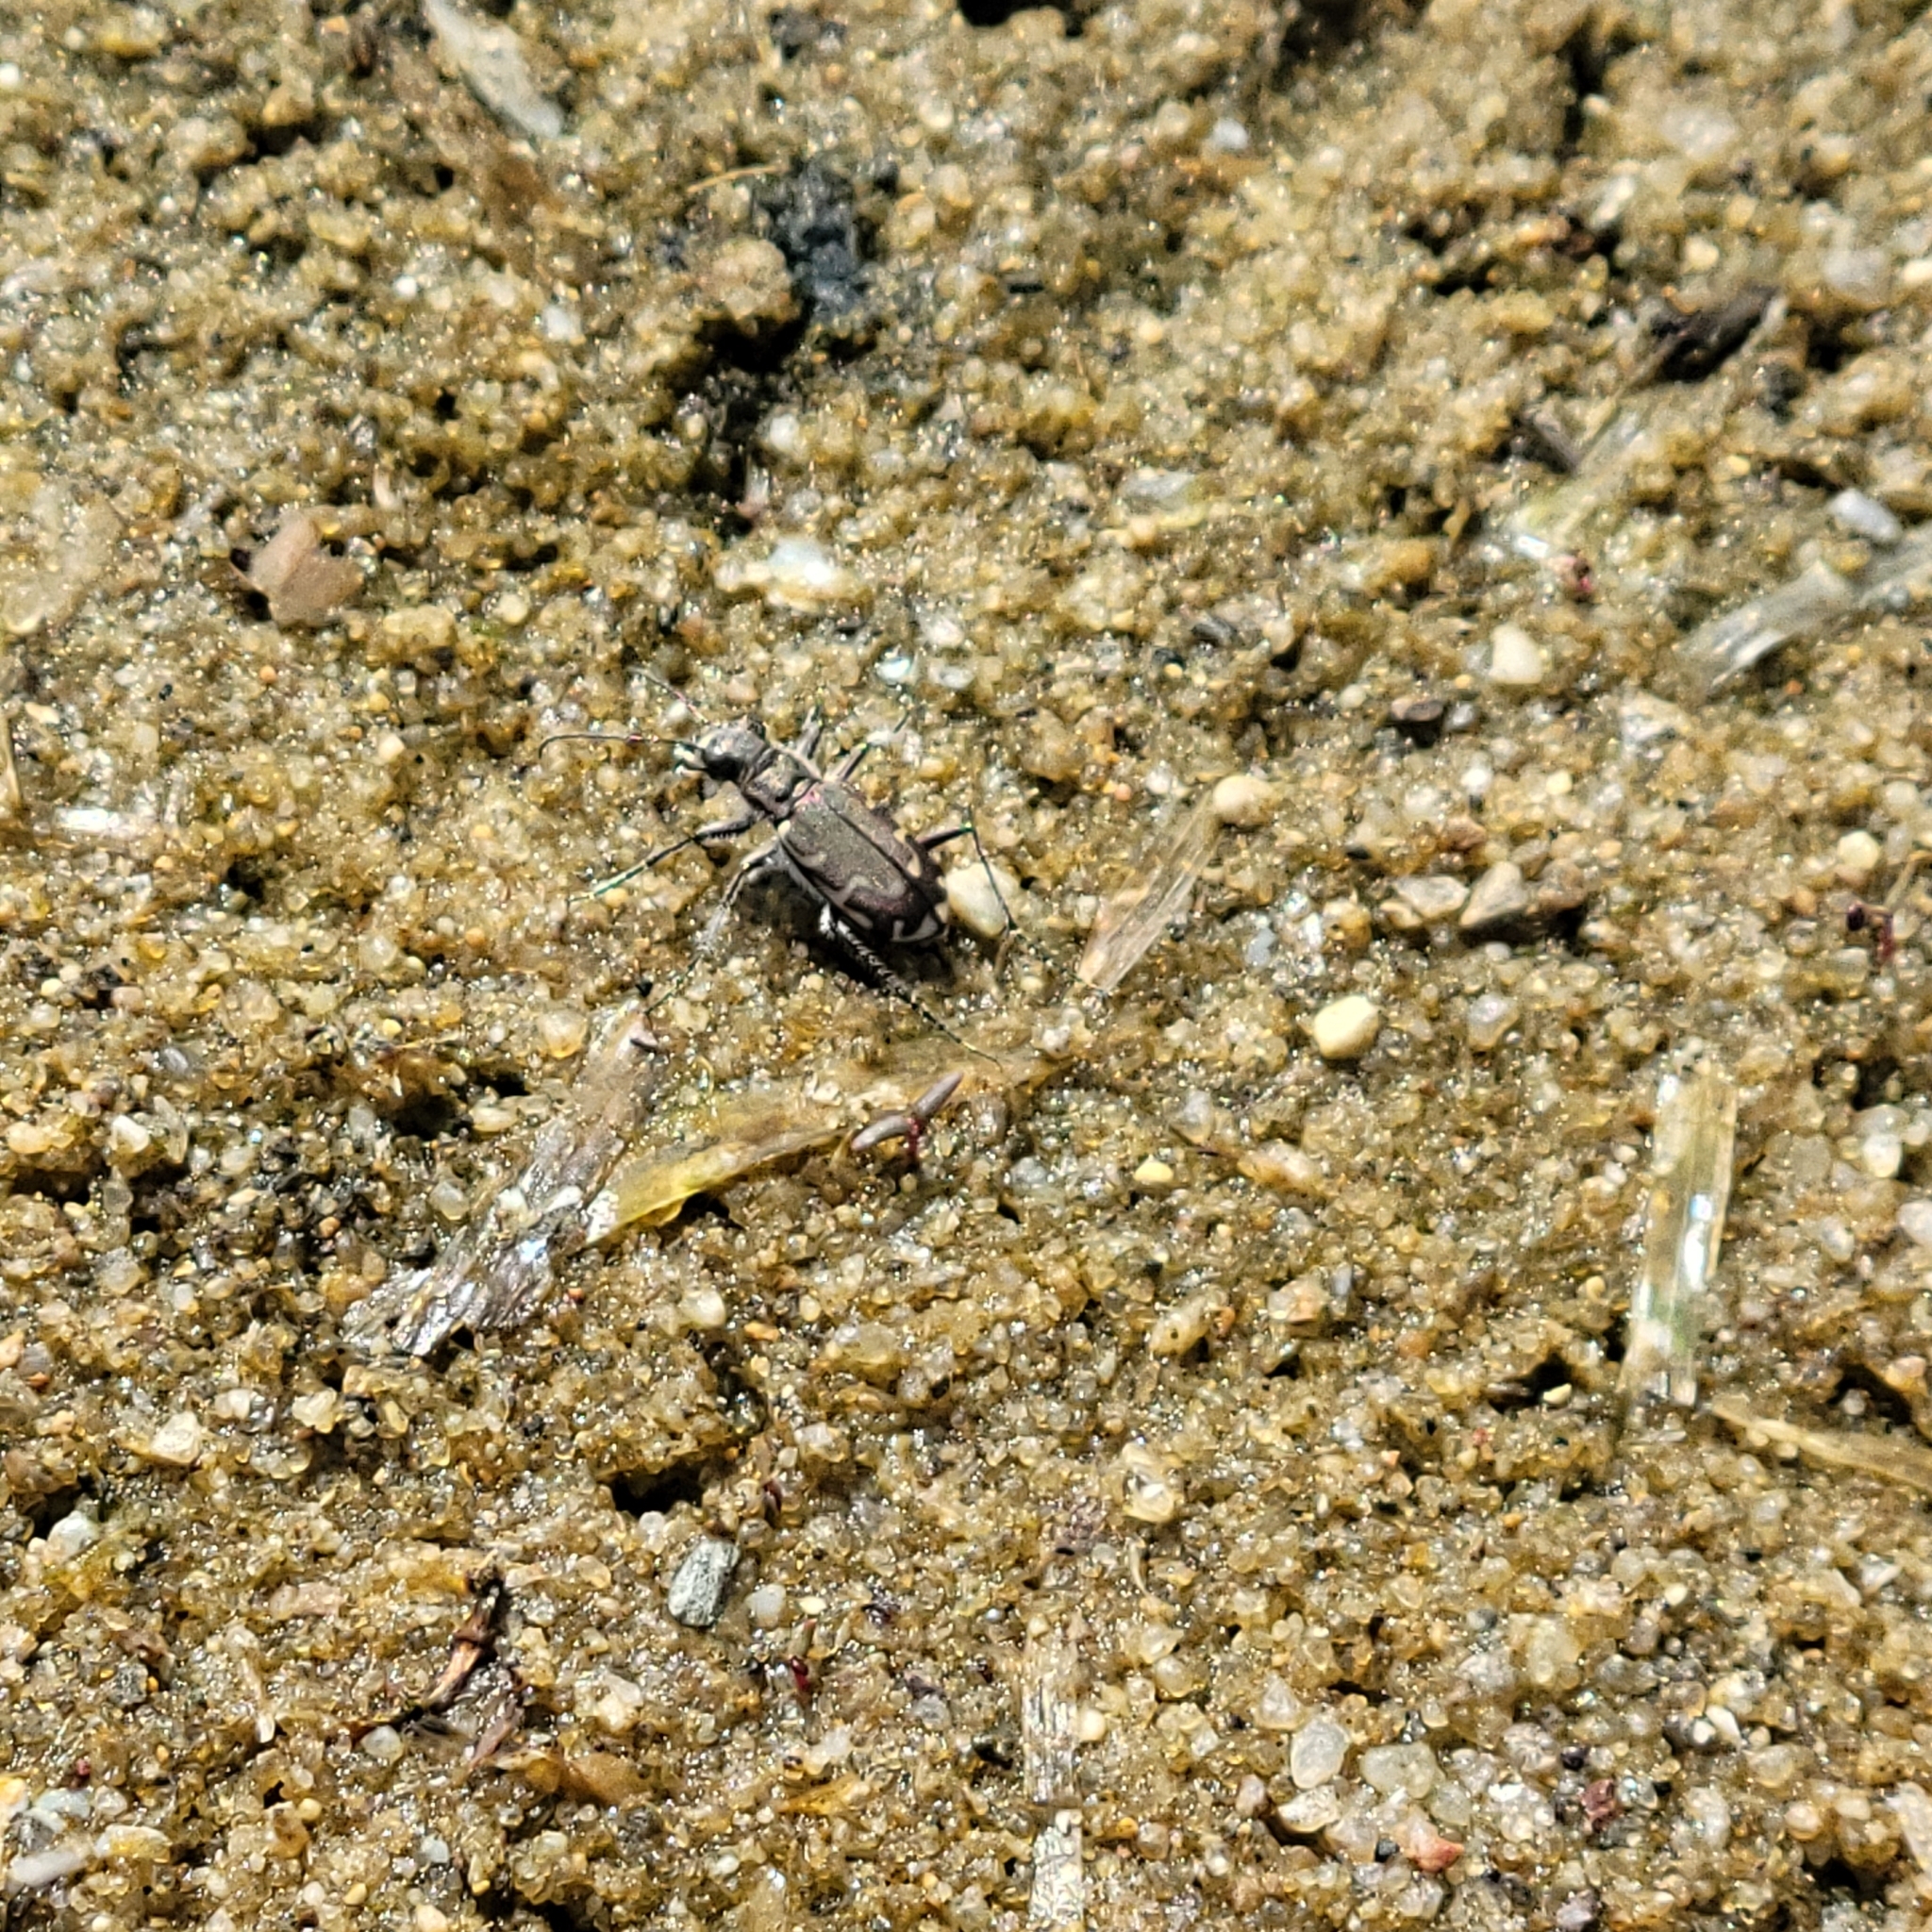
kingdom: Animalia
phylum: Arthropoda
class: Insecta
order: Coleoptera
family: Carabidae
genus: Cicindela
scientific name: Cicindela repanda
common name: Bronzed tiger beetle
